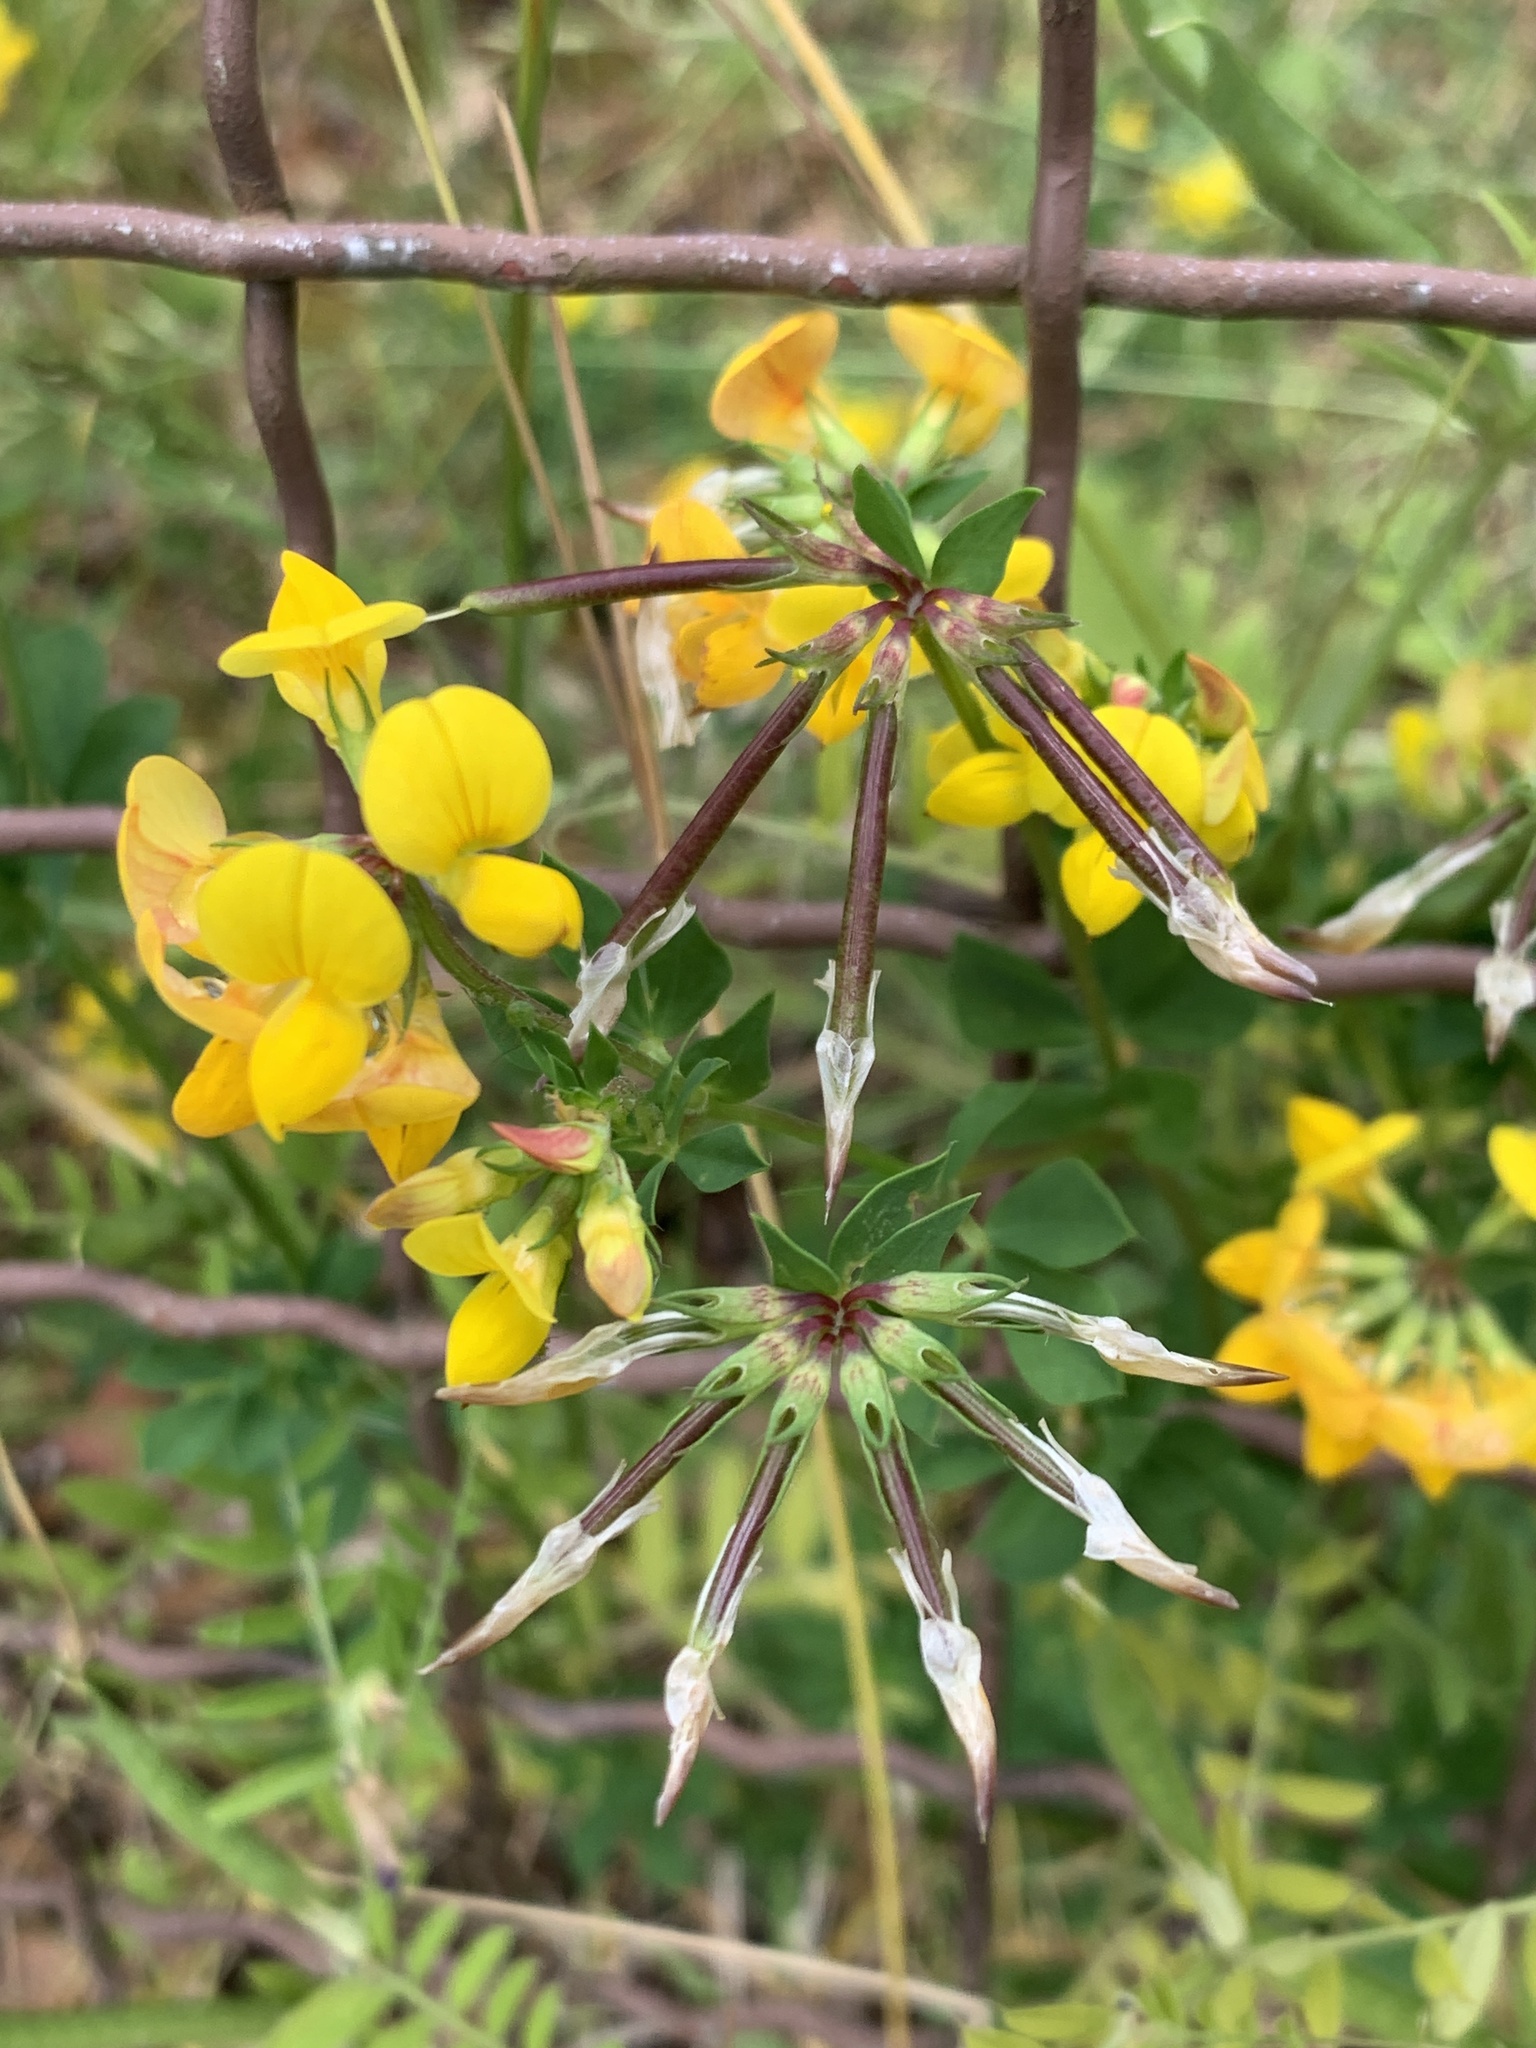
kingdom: Plantae
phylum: Tracheophyta
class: Magnoliopsida
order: Fabales
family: Fabaceae
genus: Lotus
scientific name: Lotus corniculatus
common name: Common bird's-foot-trefoil
